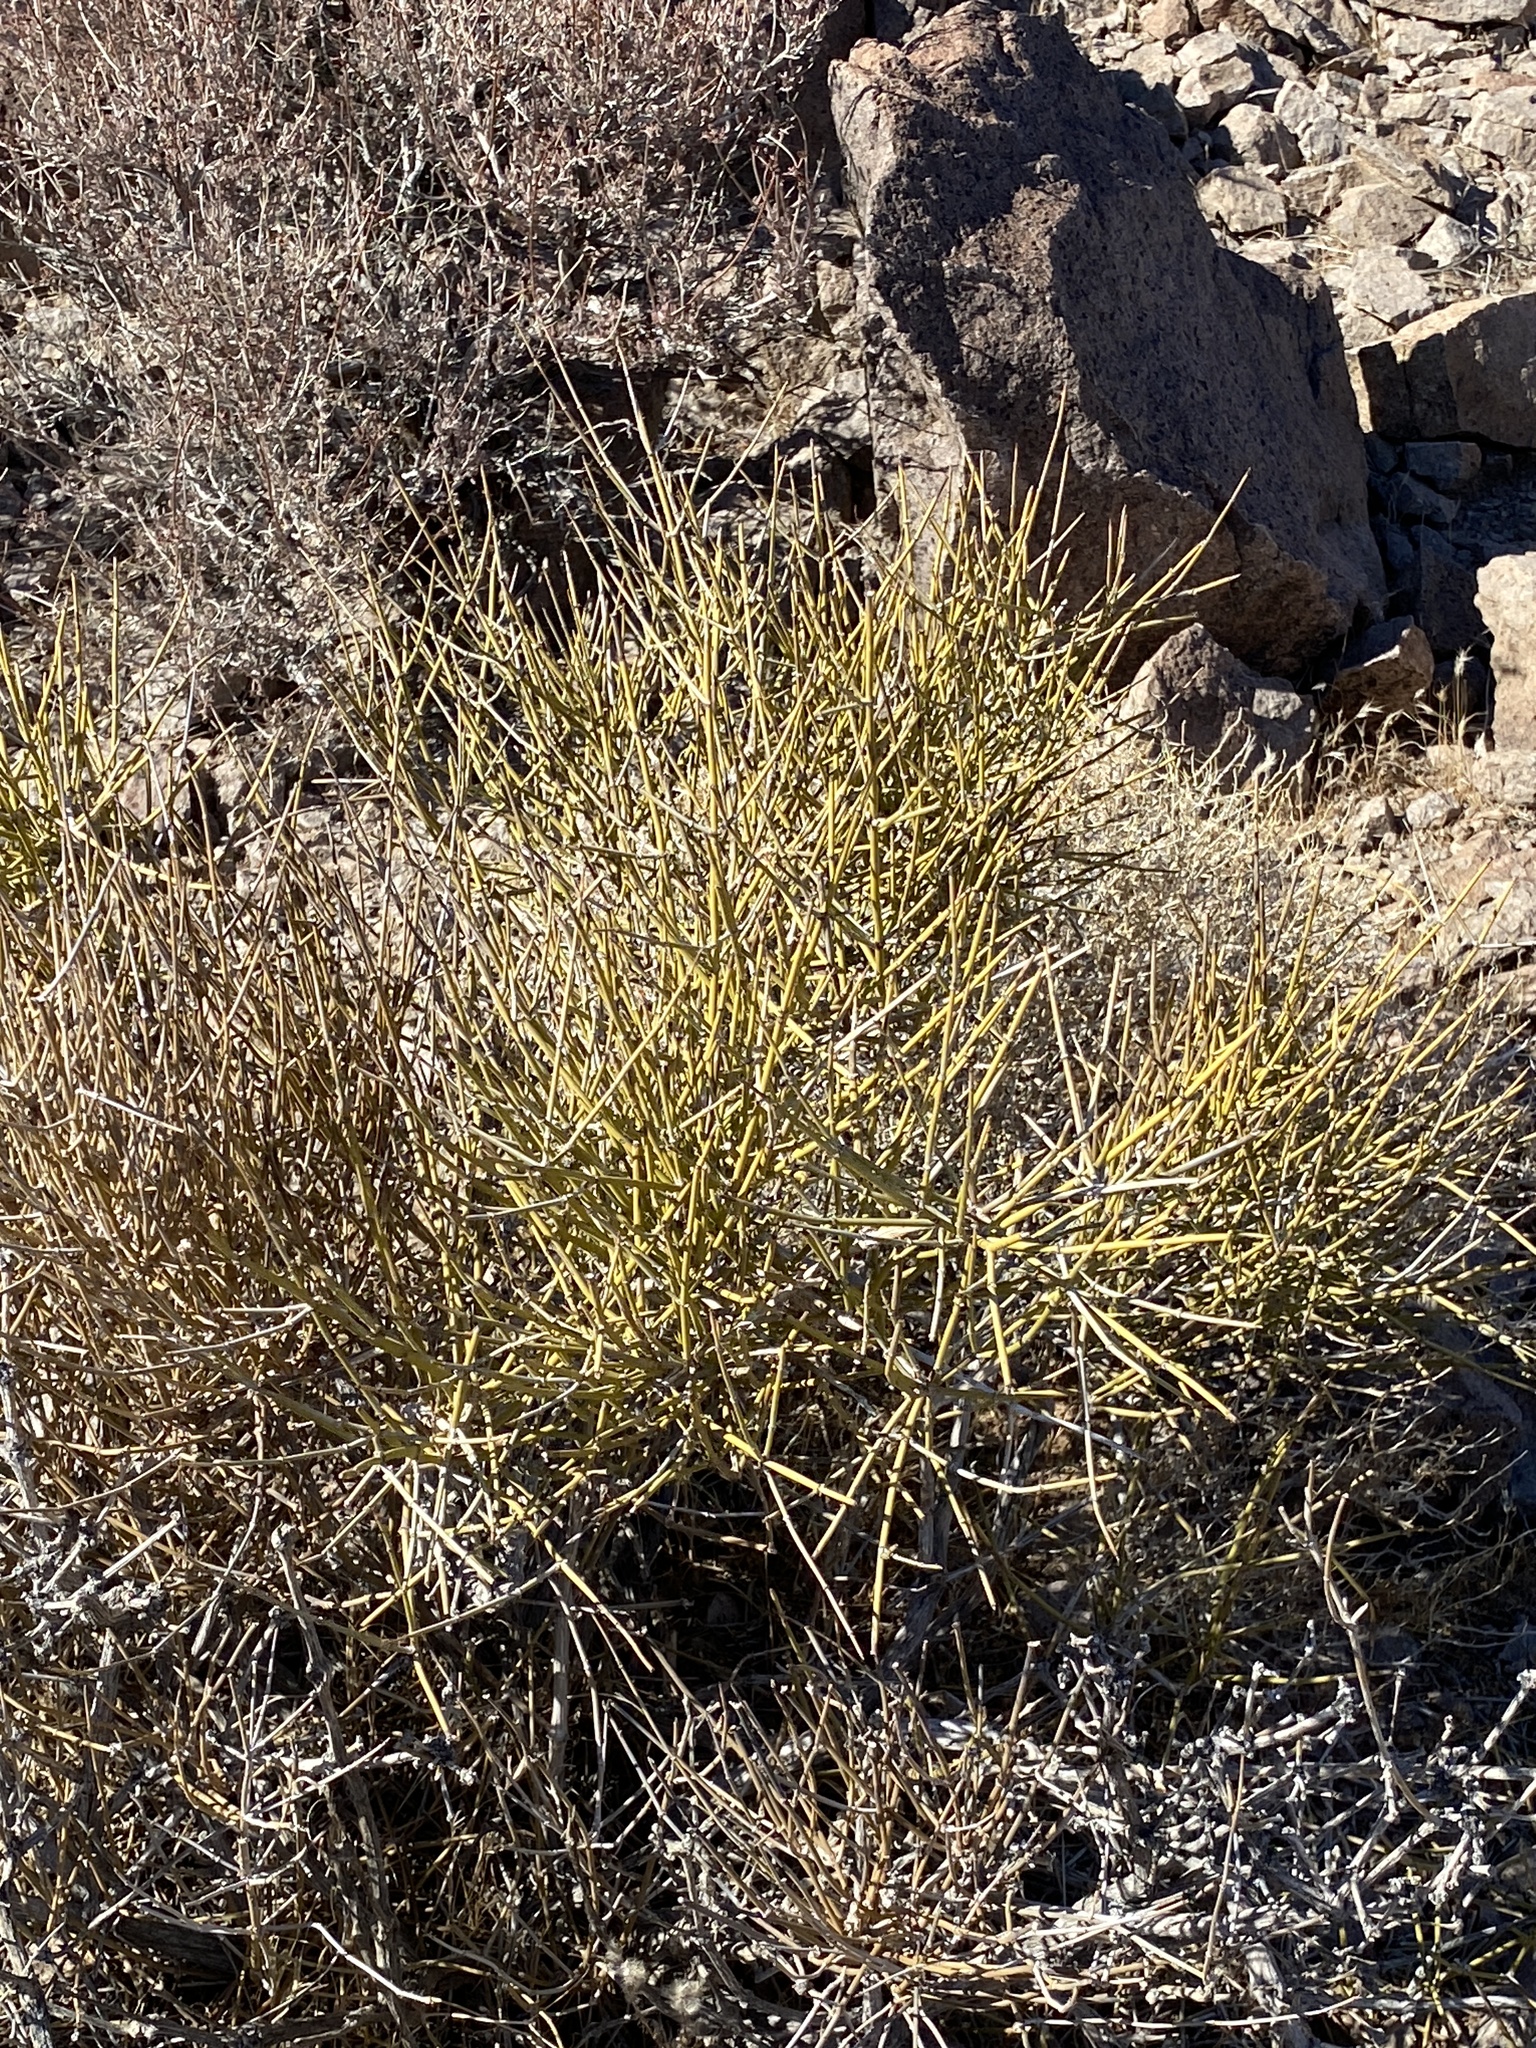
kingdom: Plantae
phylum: Tracheophyta
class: Gnetopsida
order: Ephedrales
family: Ephedraceae
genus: Ephedra
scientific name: Ephedra nevadensis
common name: Gray ephedra
